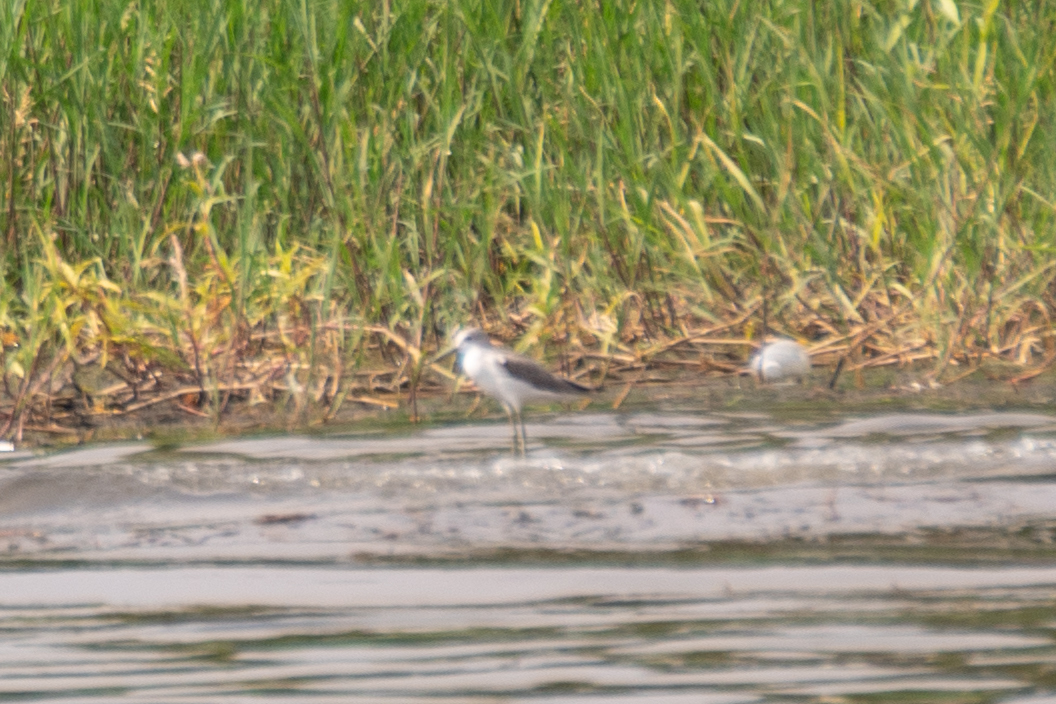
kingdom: Animalia
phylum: Chordata
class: Aves
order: Charadriiformes
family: Scolopacidae
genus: Tringa
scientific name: Tringa nebularia
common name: Common greenshank
